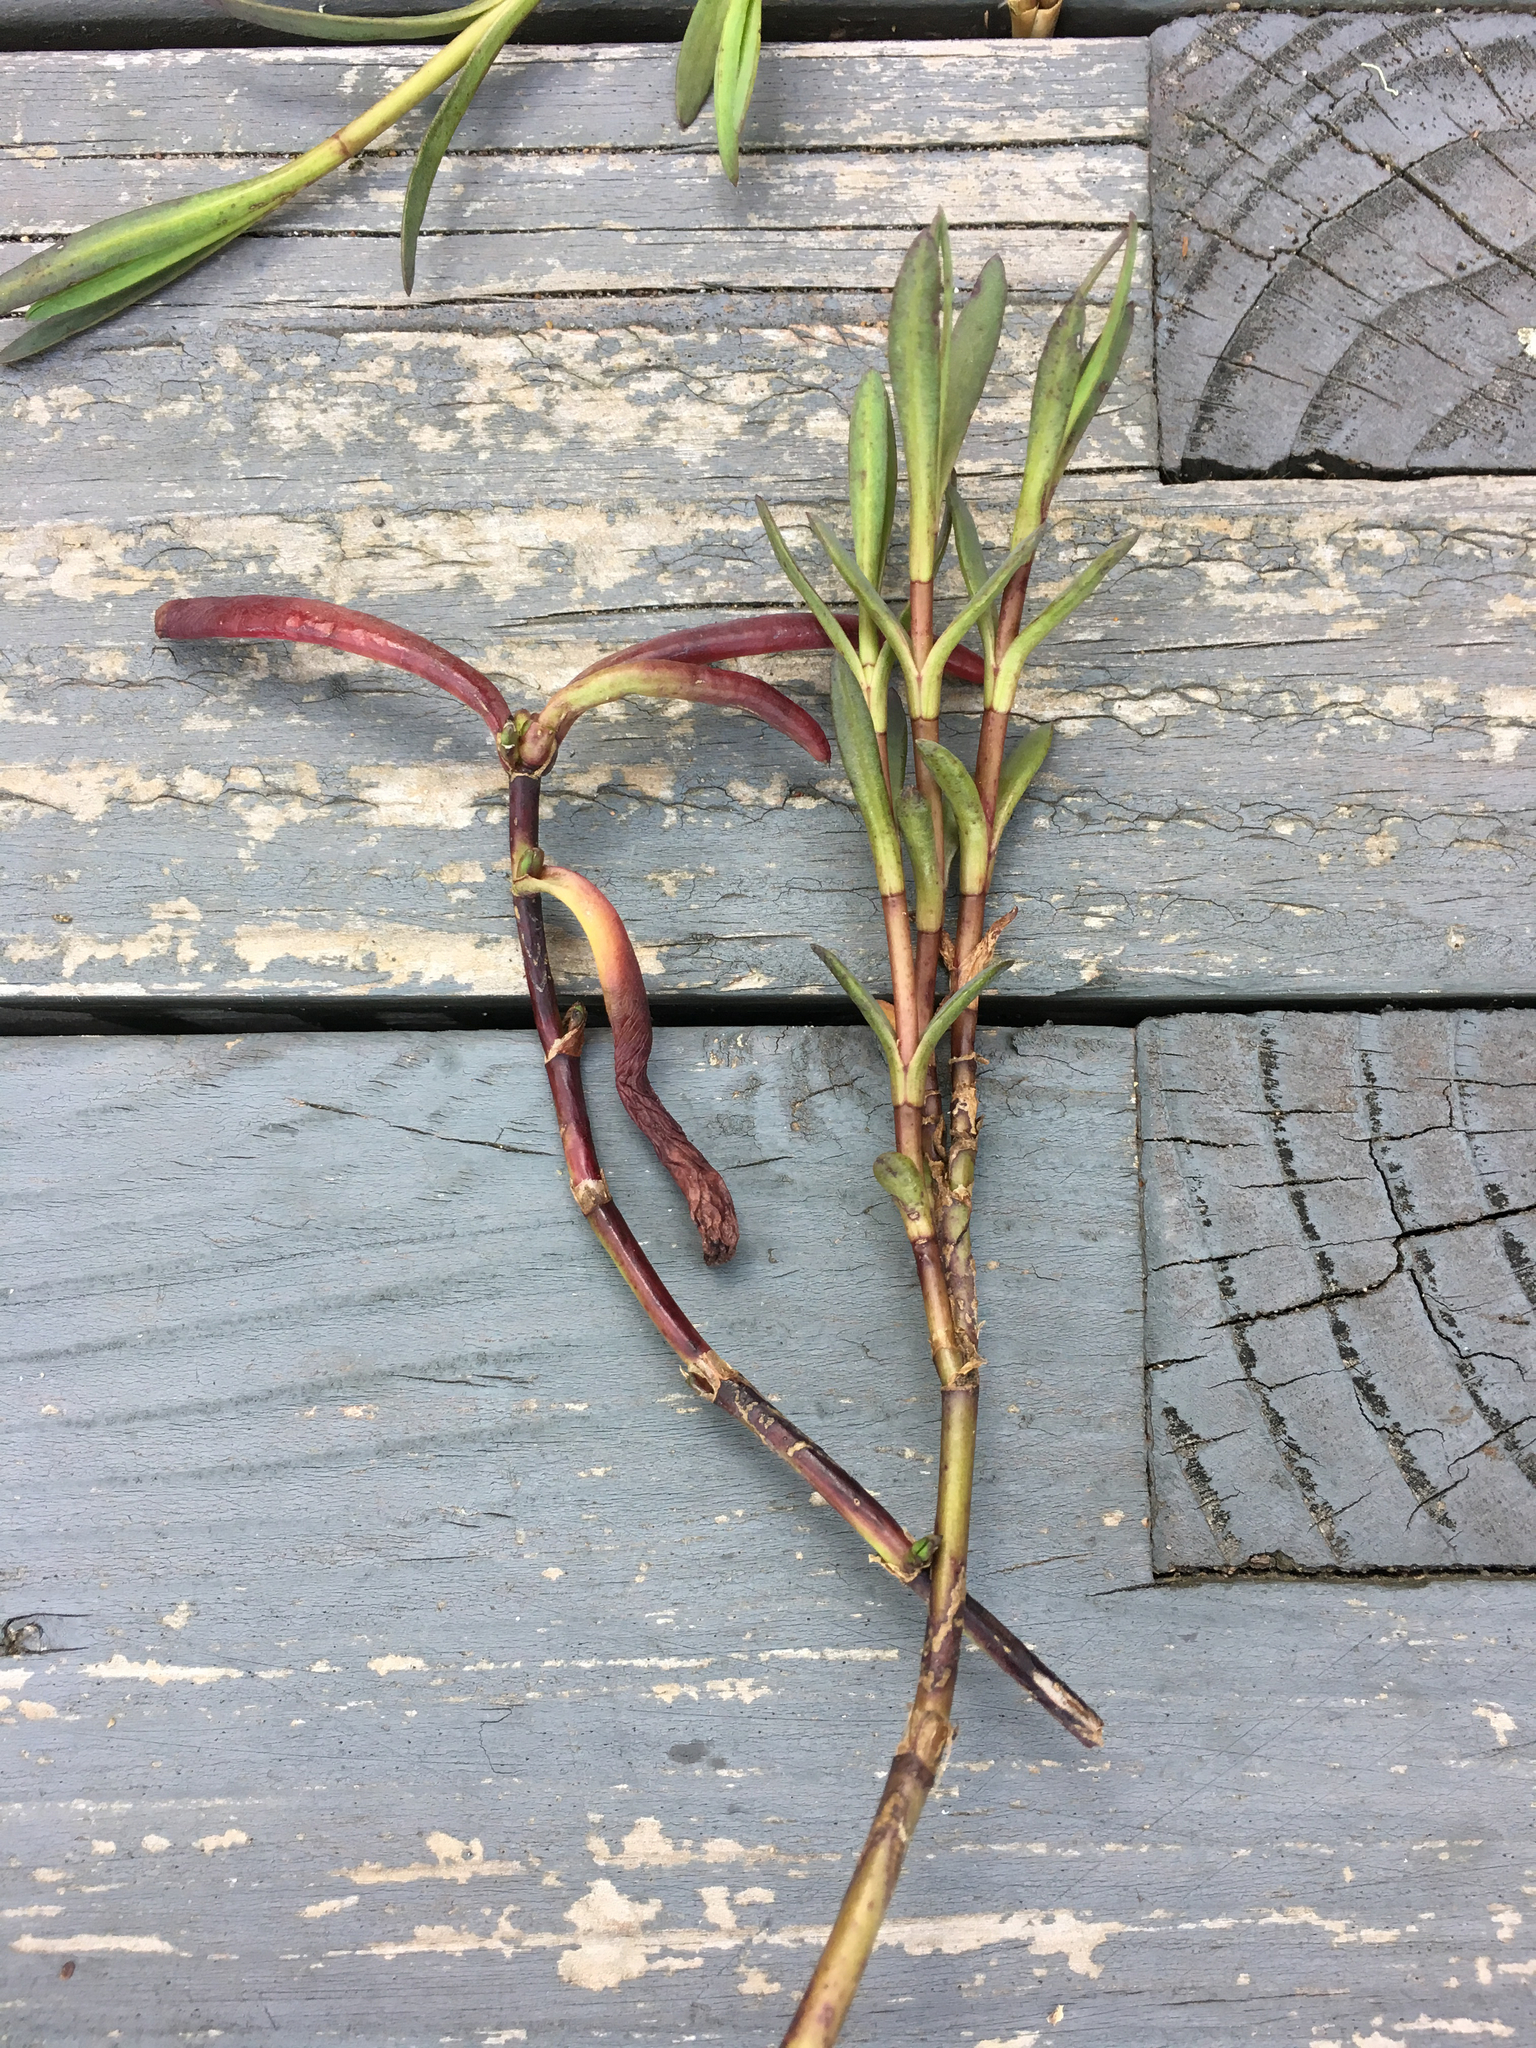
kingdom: Plantae
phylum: Tracheophyta
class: Magnoliopsida
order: Asterales
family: Asteraceae
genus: Jaumea
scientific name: Jaumea carnosa
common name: Fleshy jaumea
